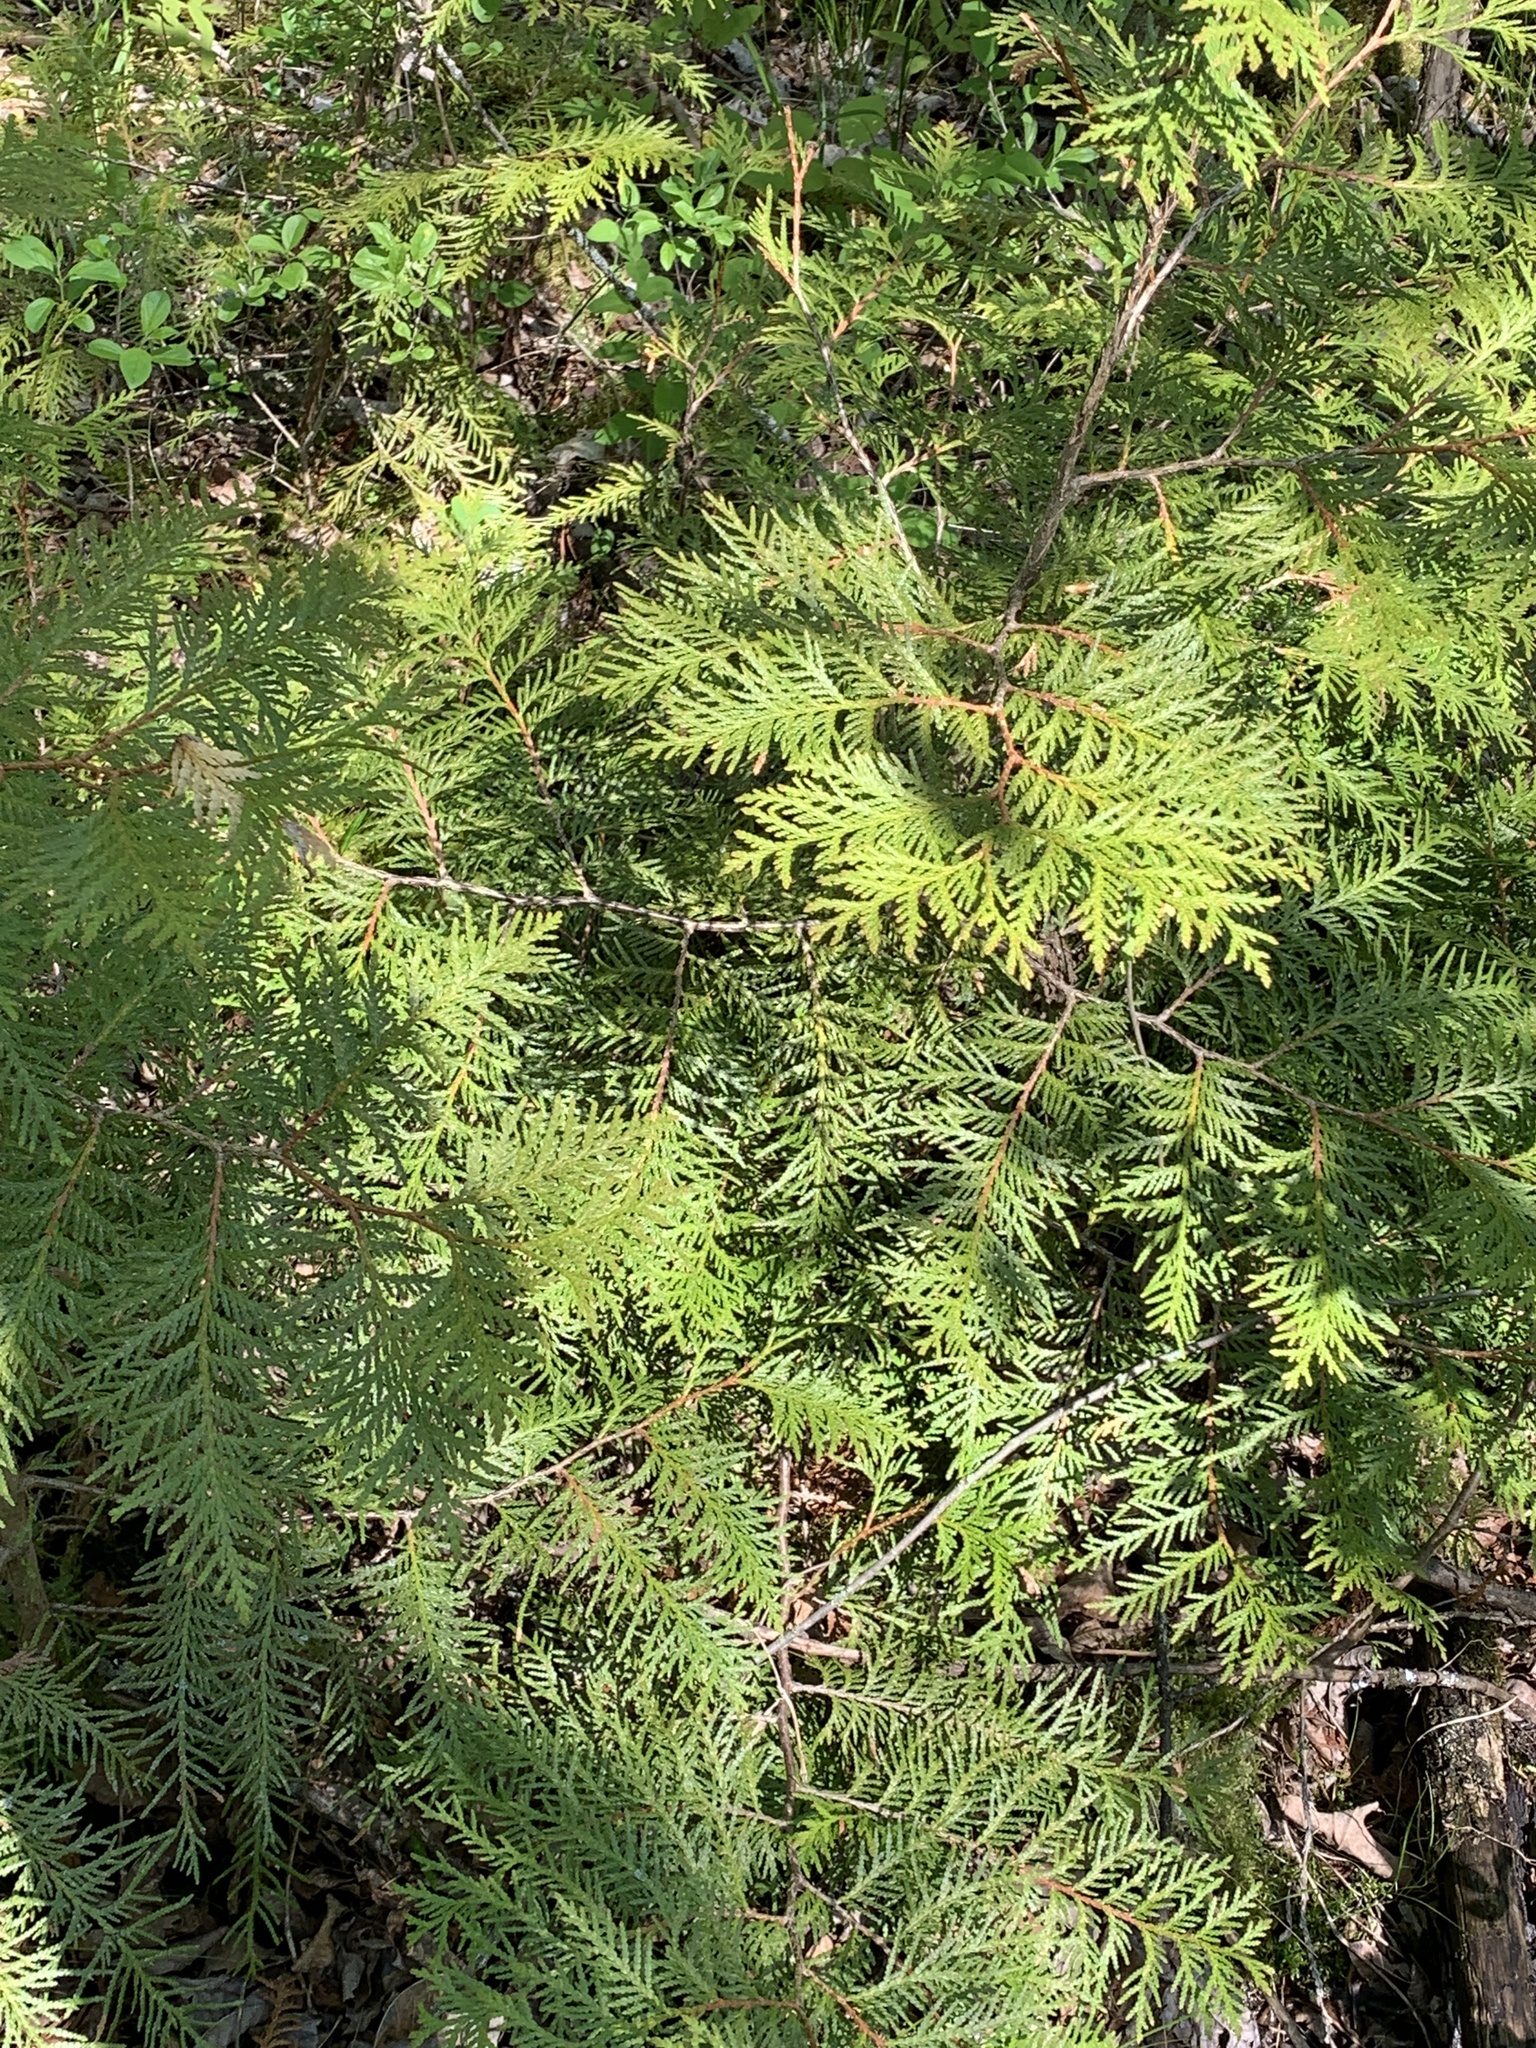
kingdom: Plantae
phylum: Tracheophyta
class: Pinopsida
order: Pinales
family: Cupressaceae
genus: Thuja
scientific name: Thuja occidentalis
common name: Northern white-cedar
